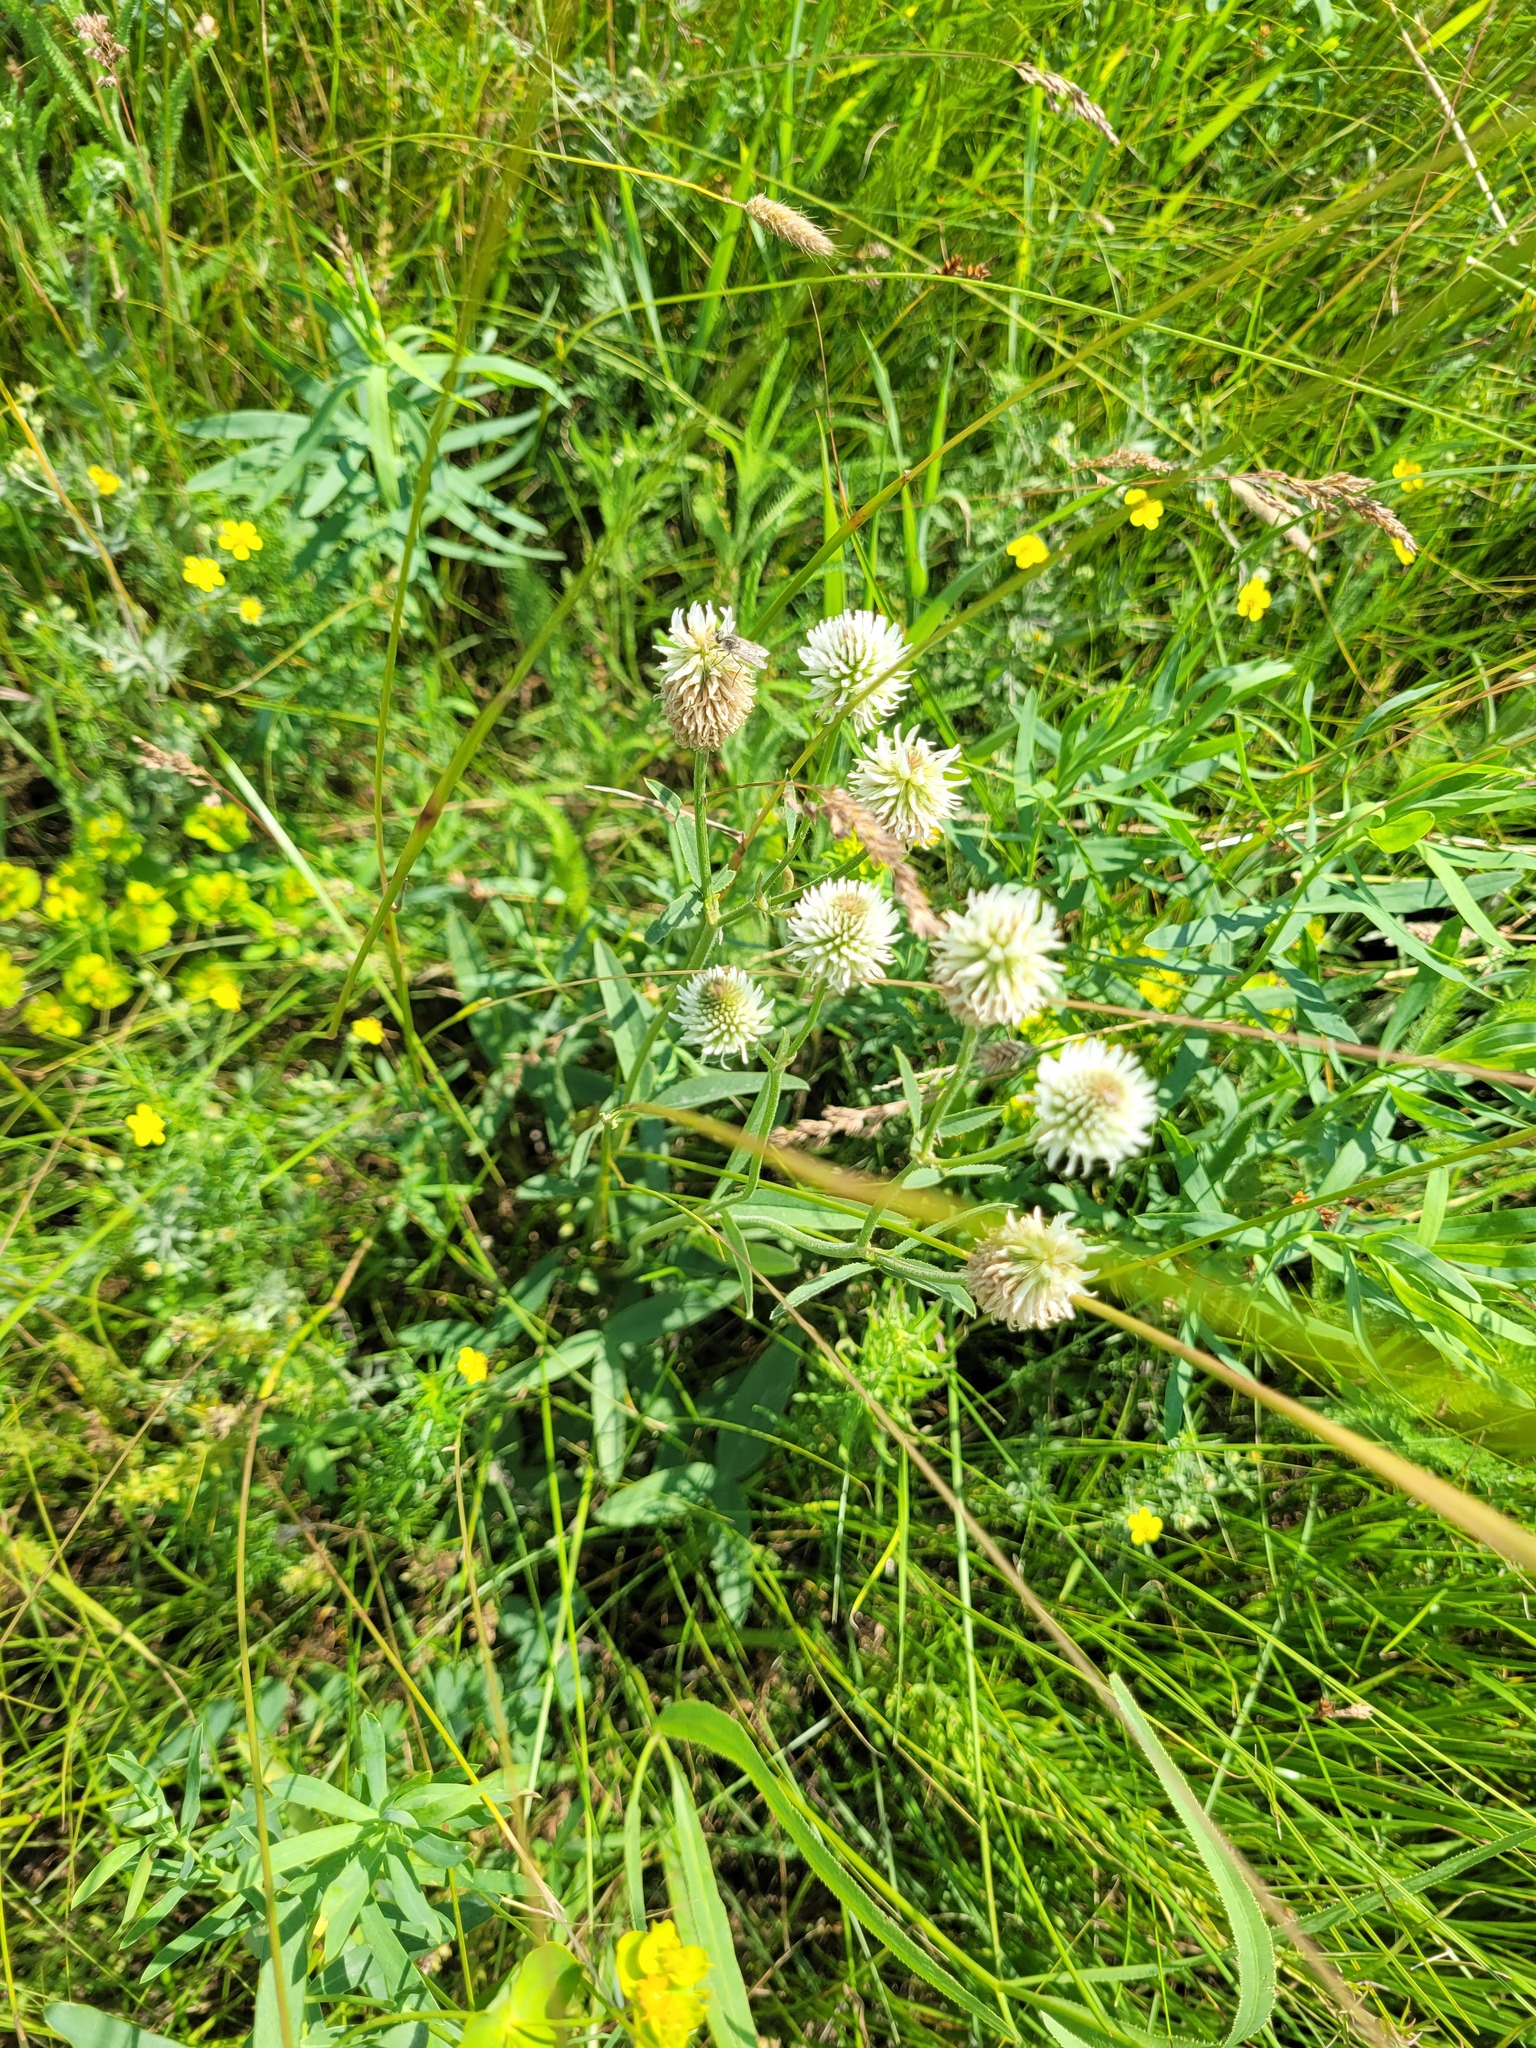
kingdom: Plantae
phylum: Tracheophyta
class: Magnoliopsida
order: Fabales
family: Fabaceae
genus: Trifolium
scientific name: Trifolium montanum
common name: Mountain clover
